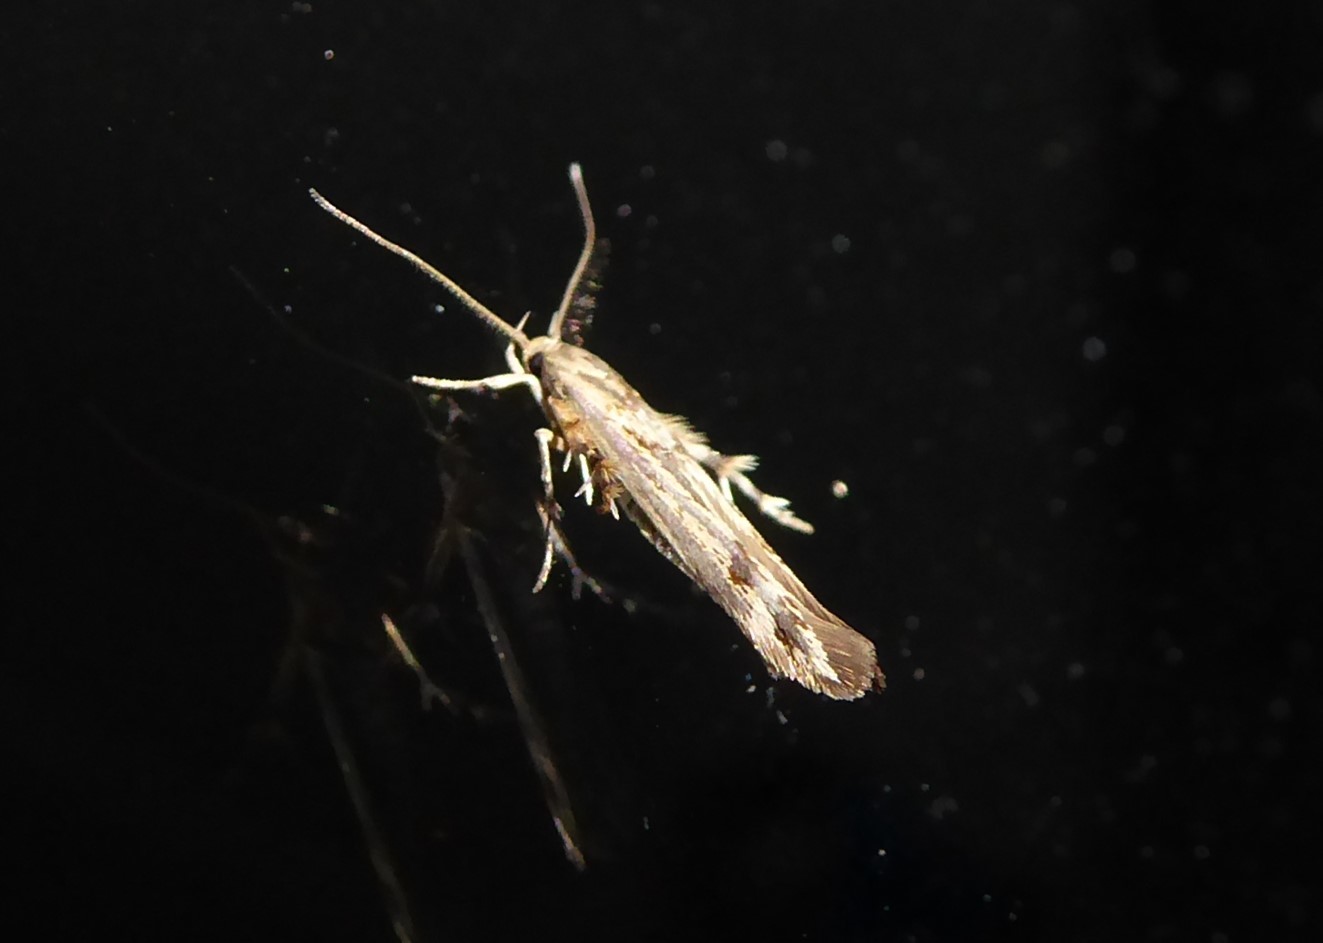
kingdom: Animalia
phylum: Arthropoda
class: Insecta
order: Lepidoptera
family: Stathmopodidae
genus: Stathmopoda
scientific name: Stathmopoda plumbiflua
